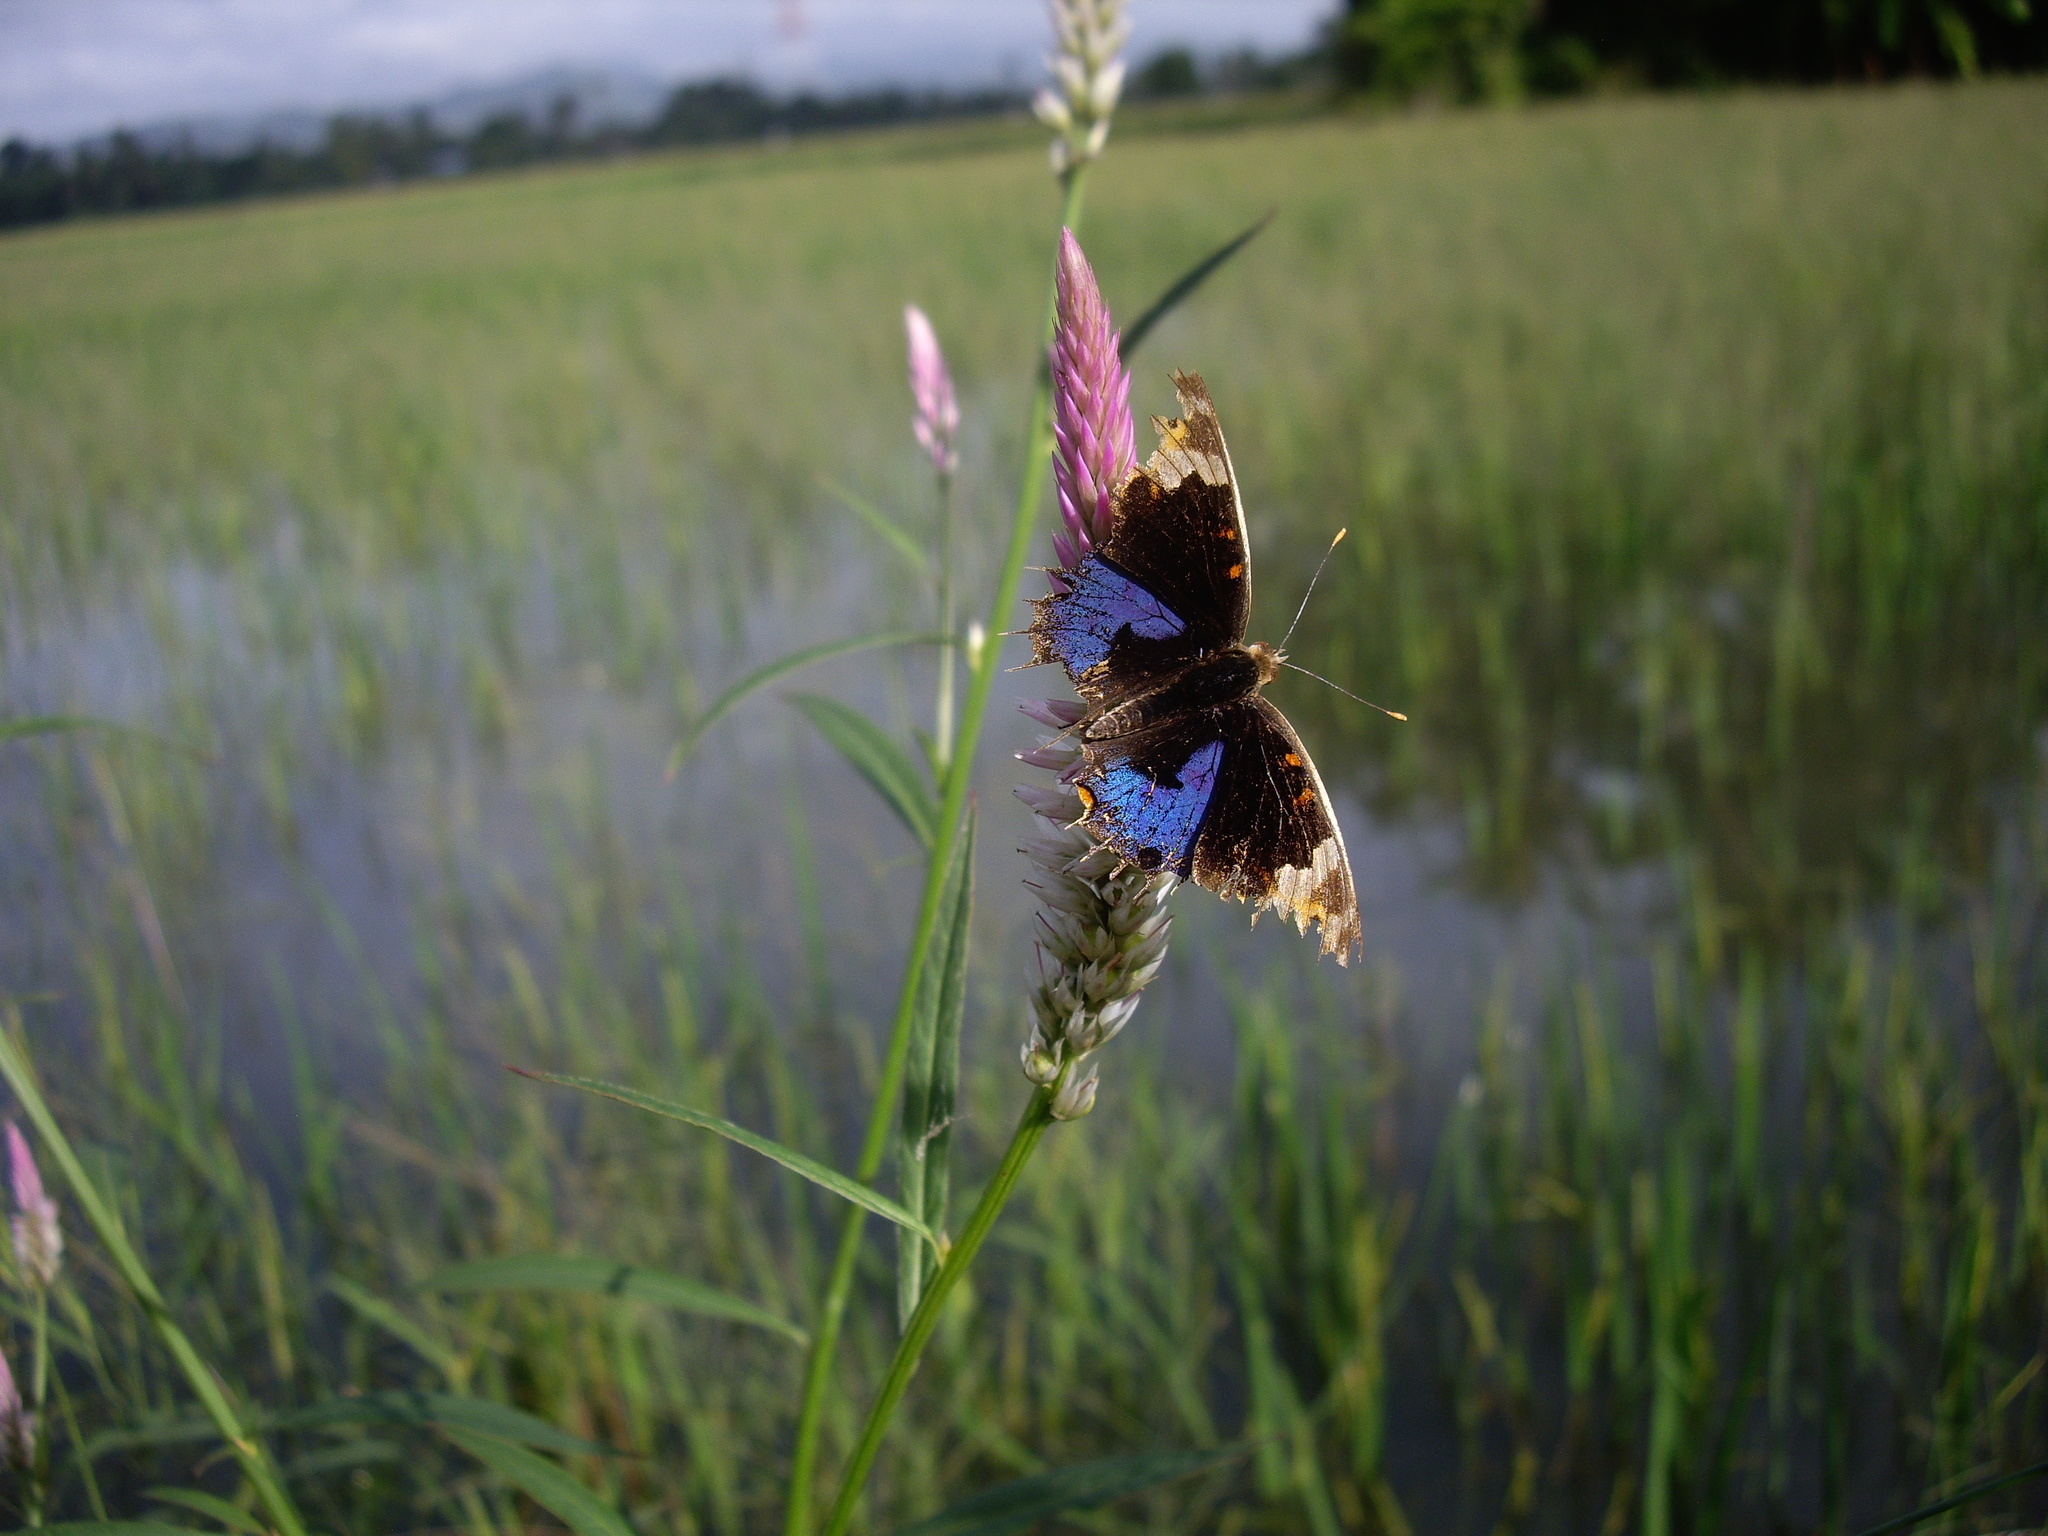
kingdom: Animalia
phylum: Arthropoda
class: Insecta
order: Lepidoptera
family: Nymphalidae
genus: Junonia
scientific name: Junonia orithya
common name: Blue pansy
